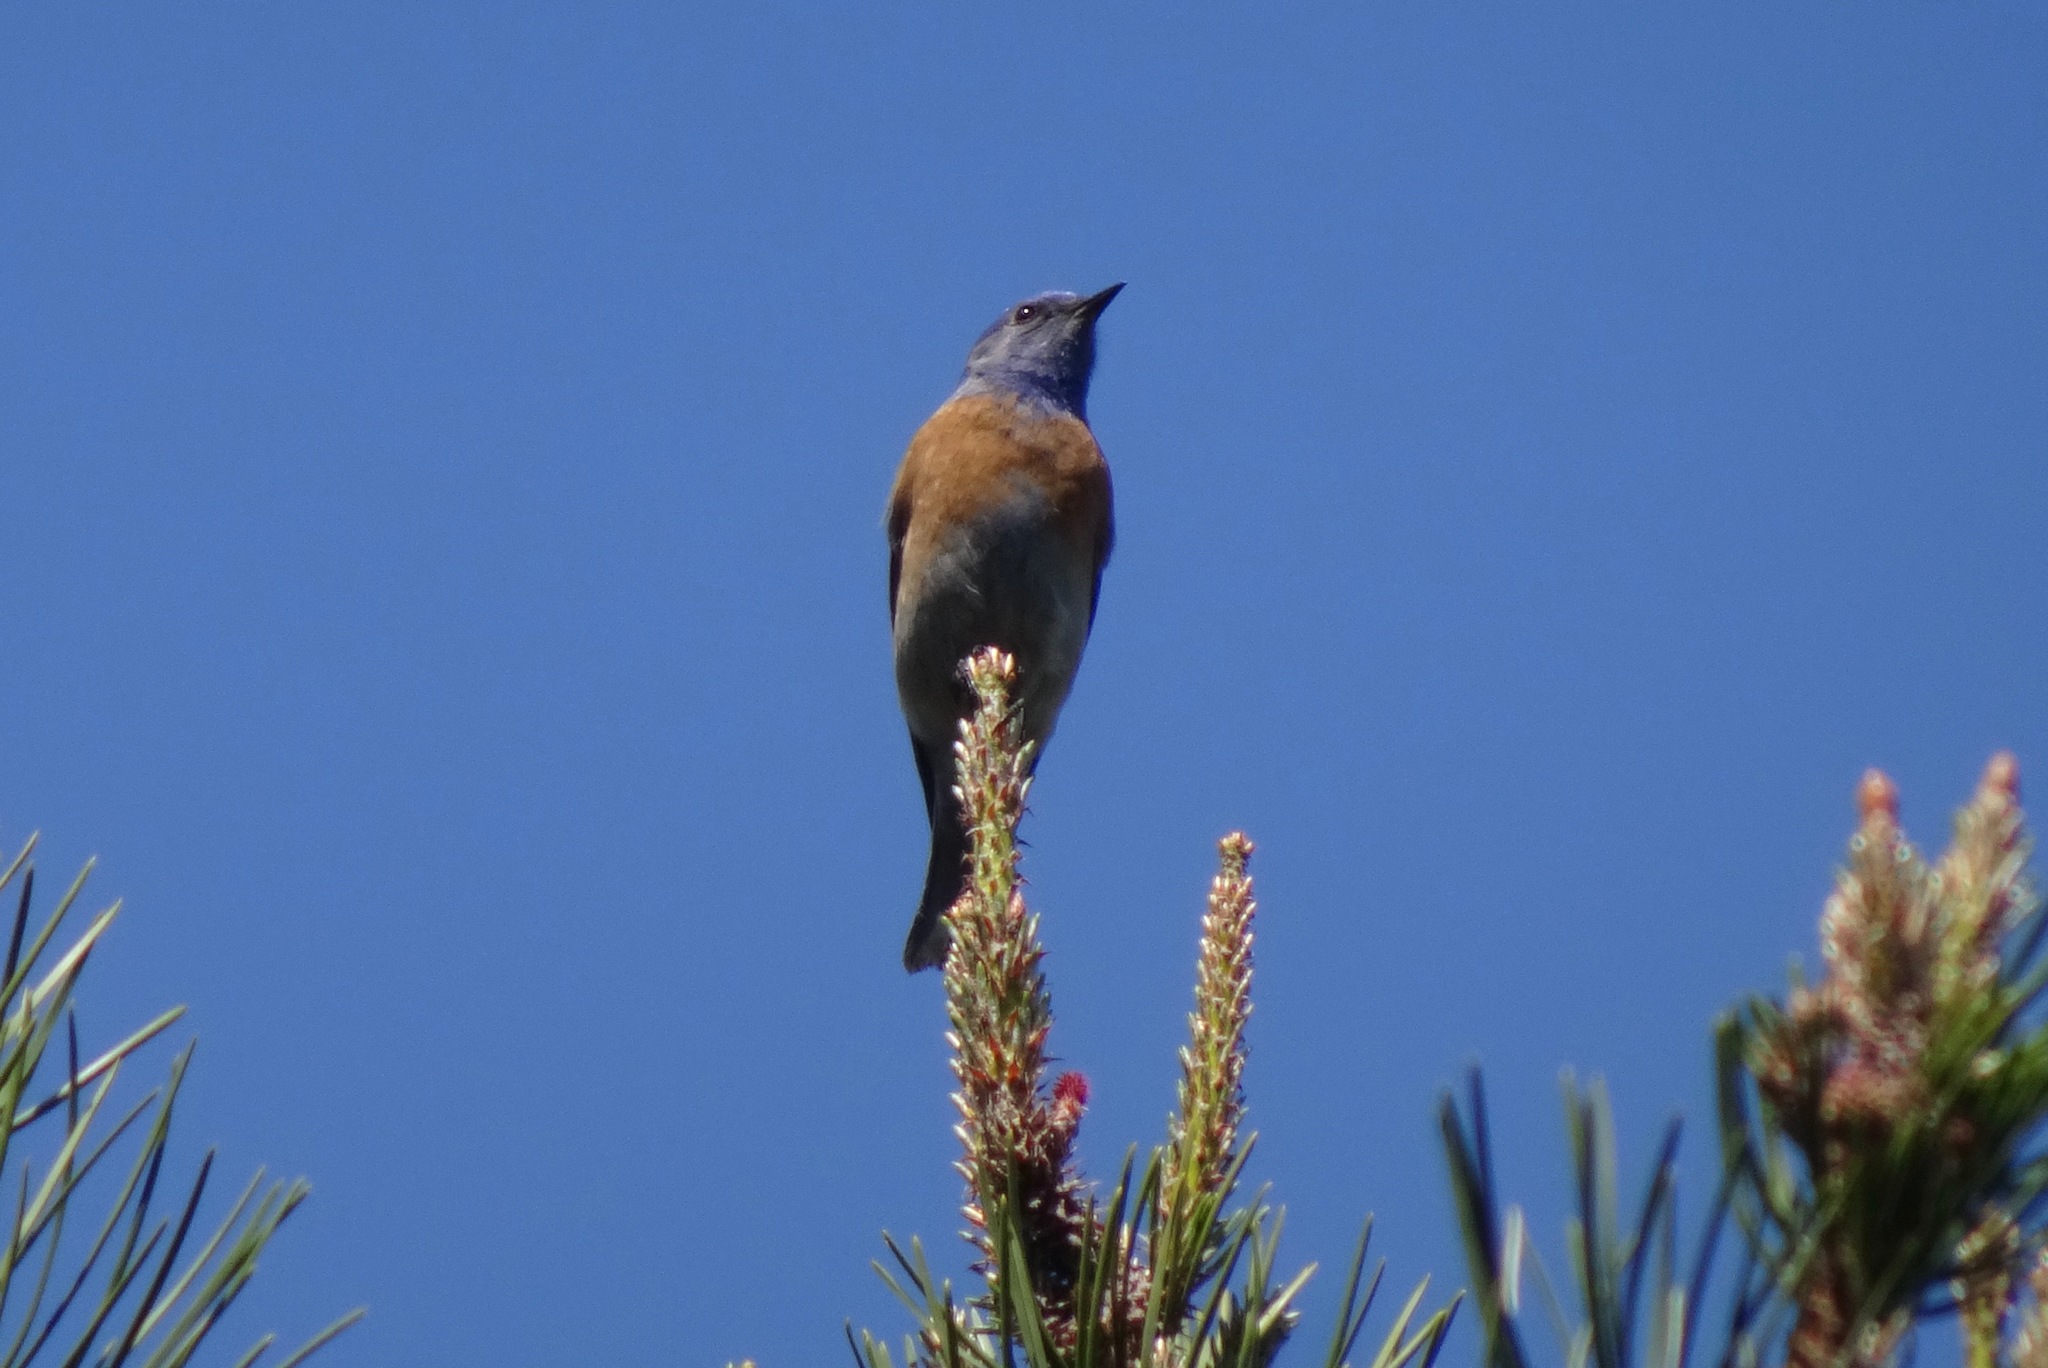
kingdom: Animalia
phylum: Chordata
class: Aves
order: Passeriformes
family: Turdidae
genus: Sialia
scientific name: Sialia mexicana
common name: Western bluebird
